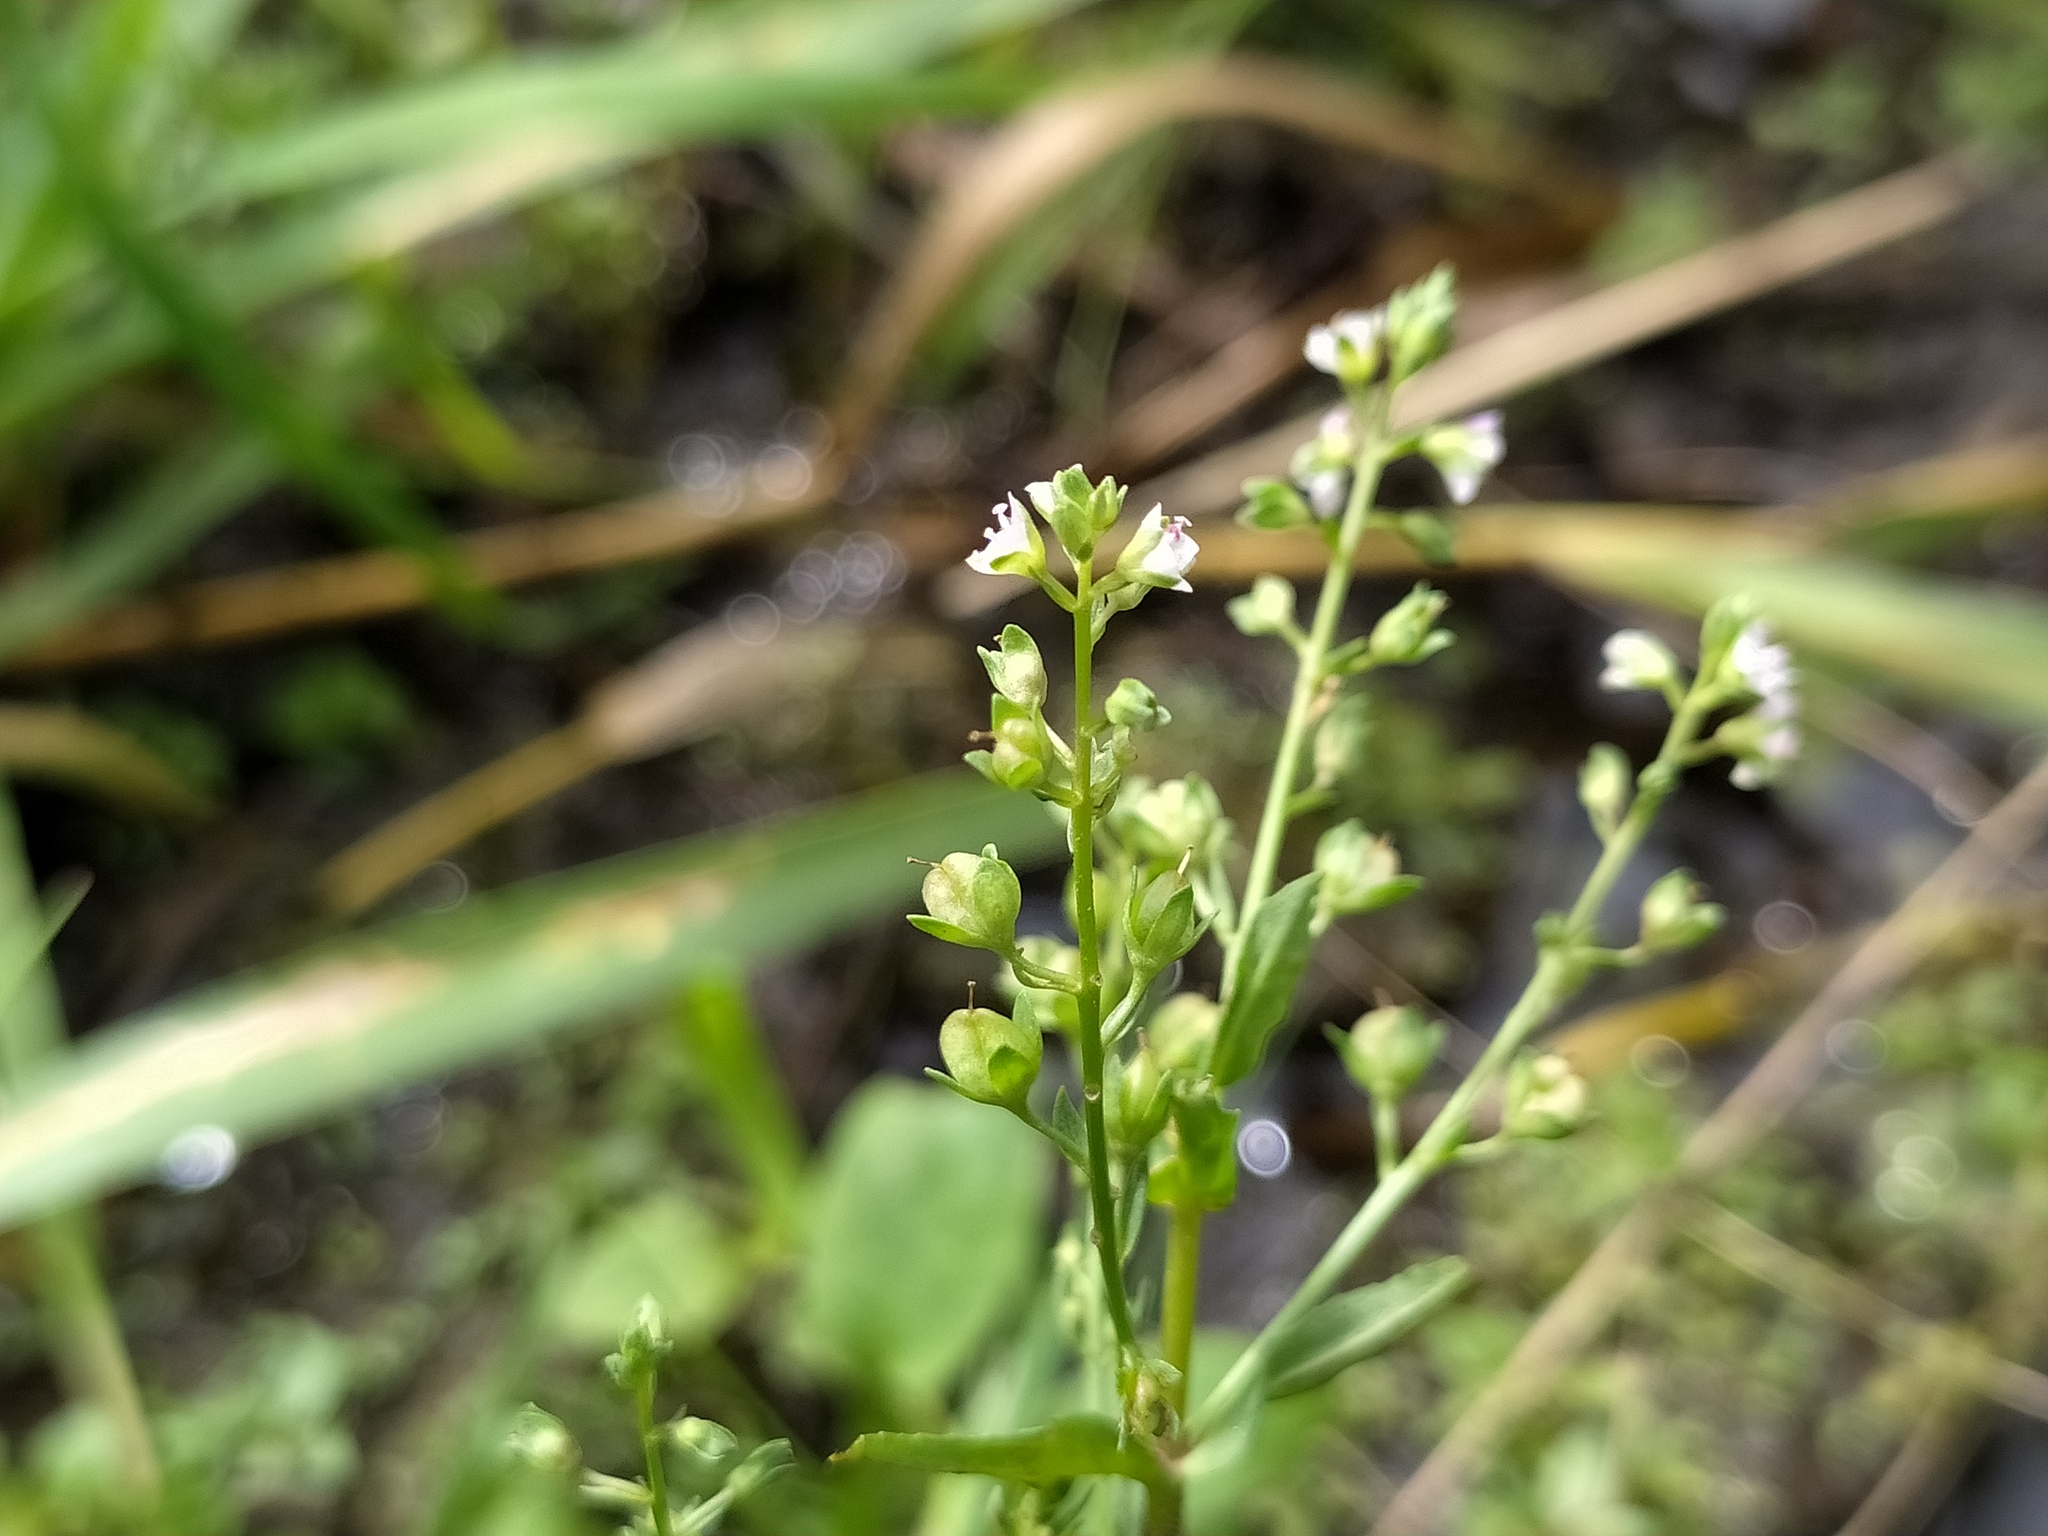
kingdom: Plantae
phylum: Tracheophyta
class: Magnoliopsida
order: Lamiales
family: Plantaginaceae
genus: Veronica
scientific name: Veronica catenata
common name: Pink water-speedwell
